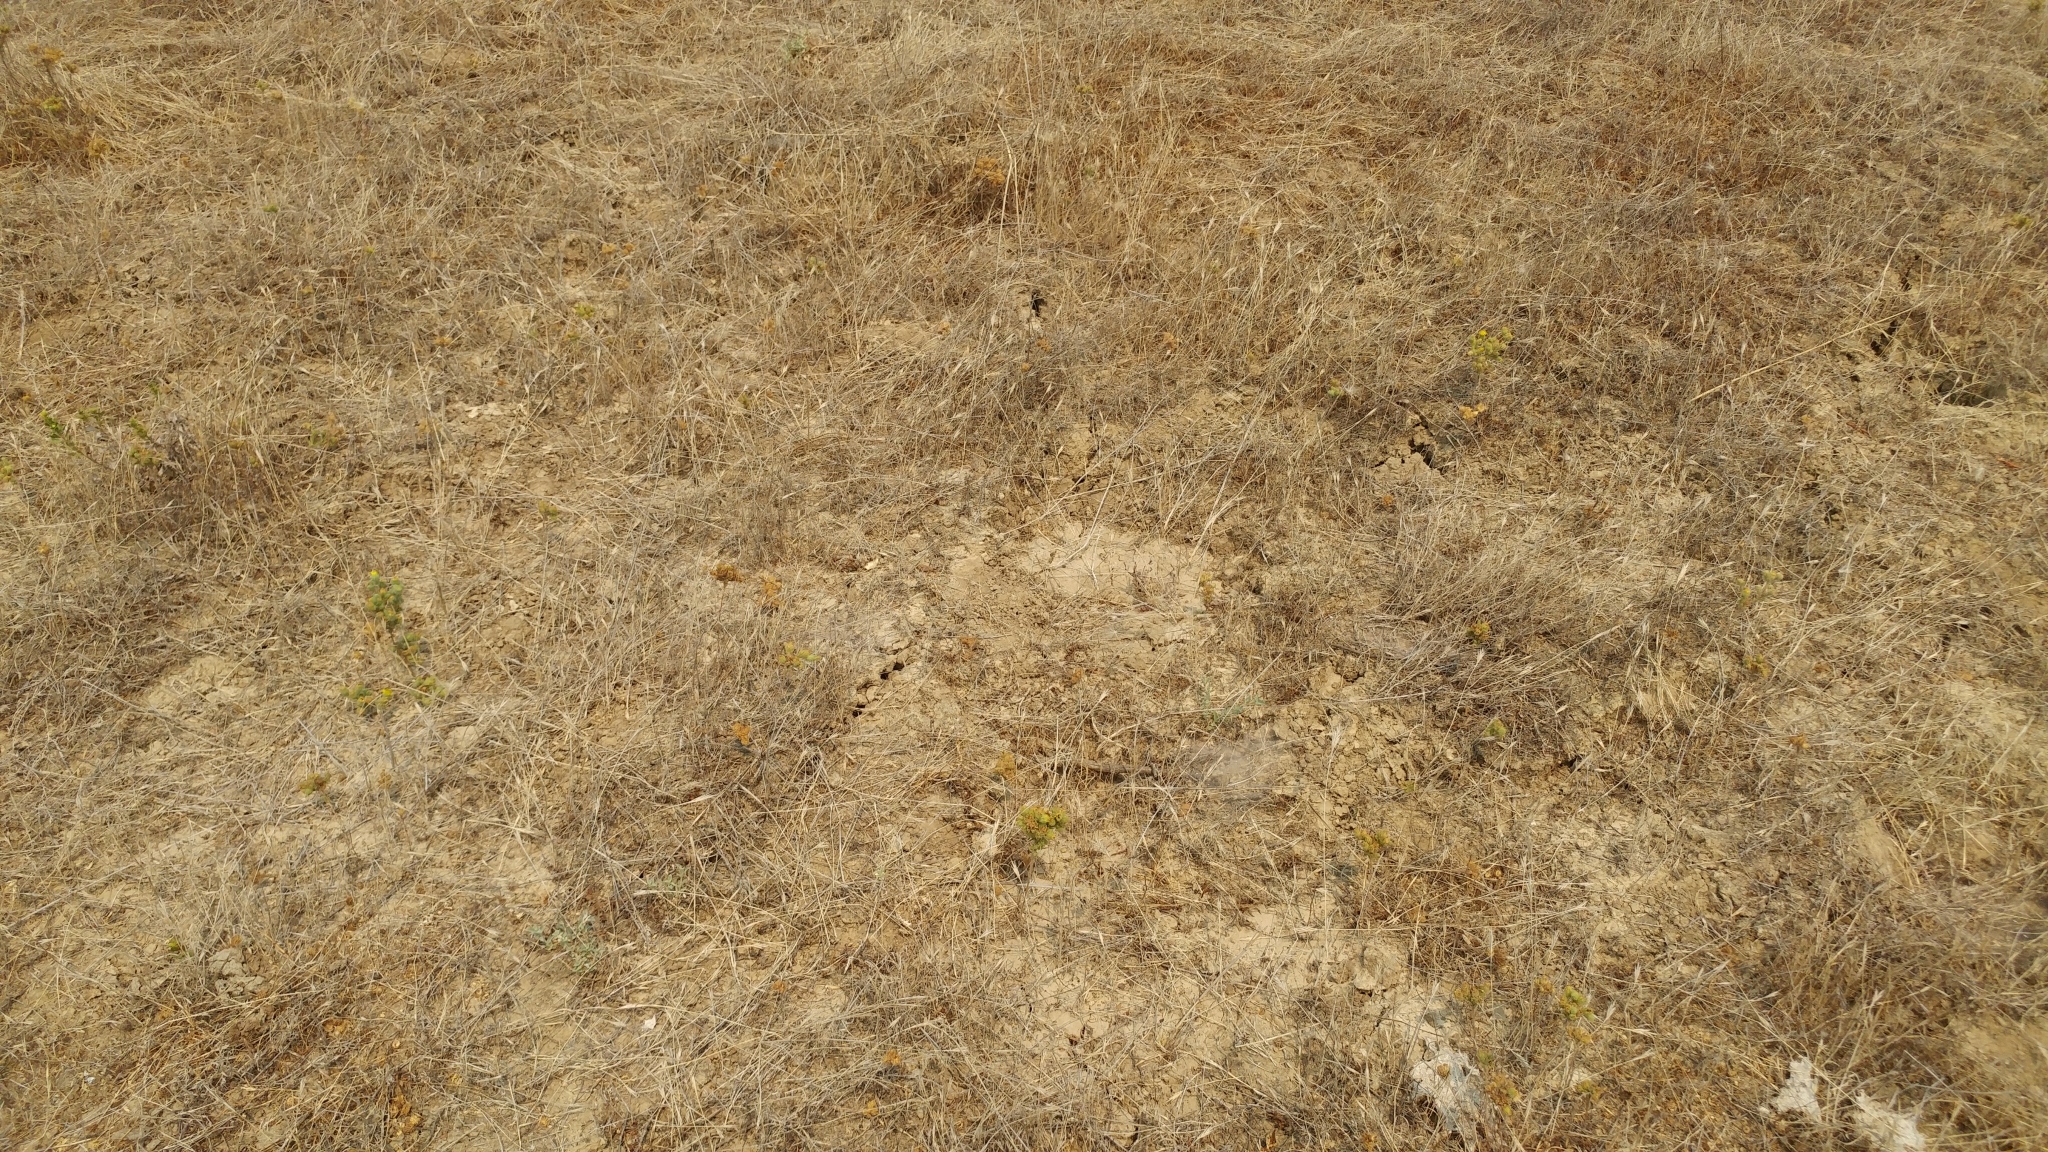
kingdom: Plantae
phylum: Tracheophyta
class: Magnoliopsida
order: Asterales
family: Asteraceae
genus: Deinandra
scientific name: Deinandra increscens
